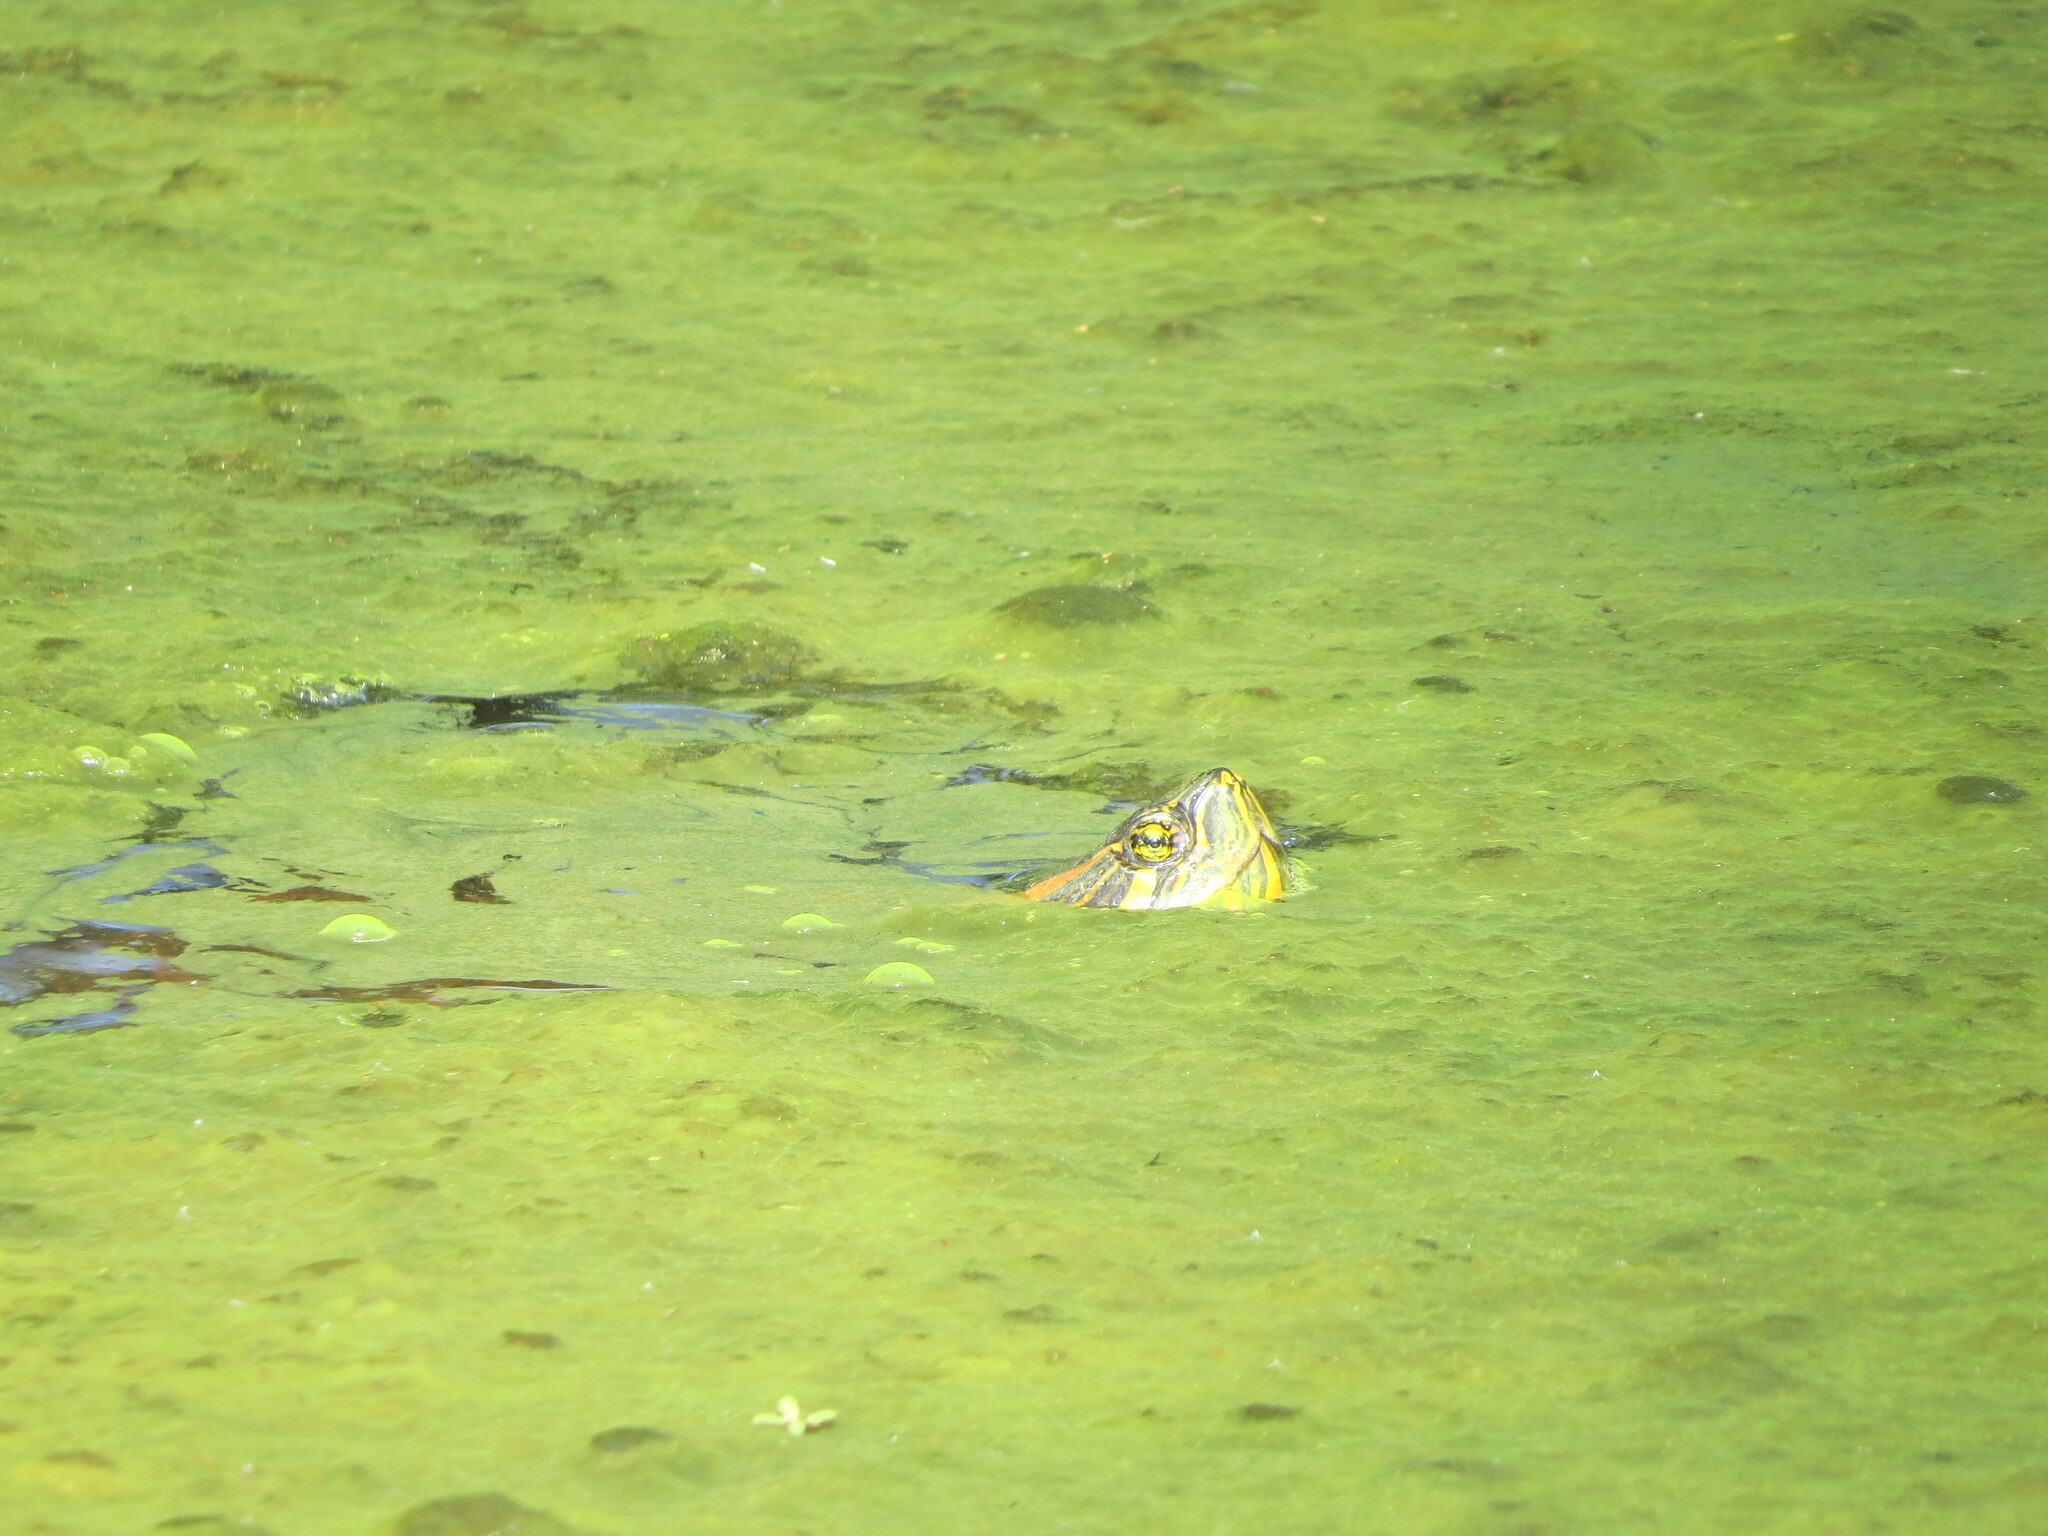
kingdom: Animalia
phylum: Chordata
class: Testudines
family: Emydidae
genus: Trachemys
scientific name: Trachemys dorbigni
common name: Black-bellied slider
